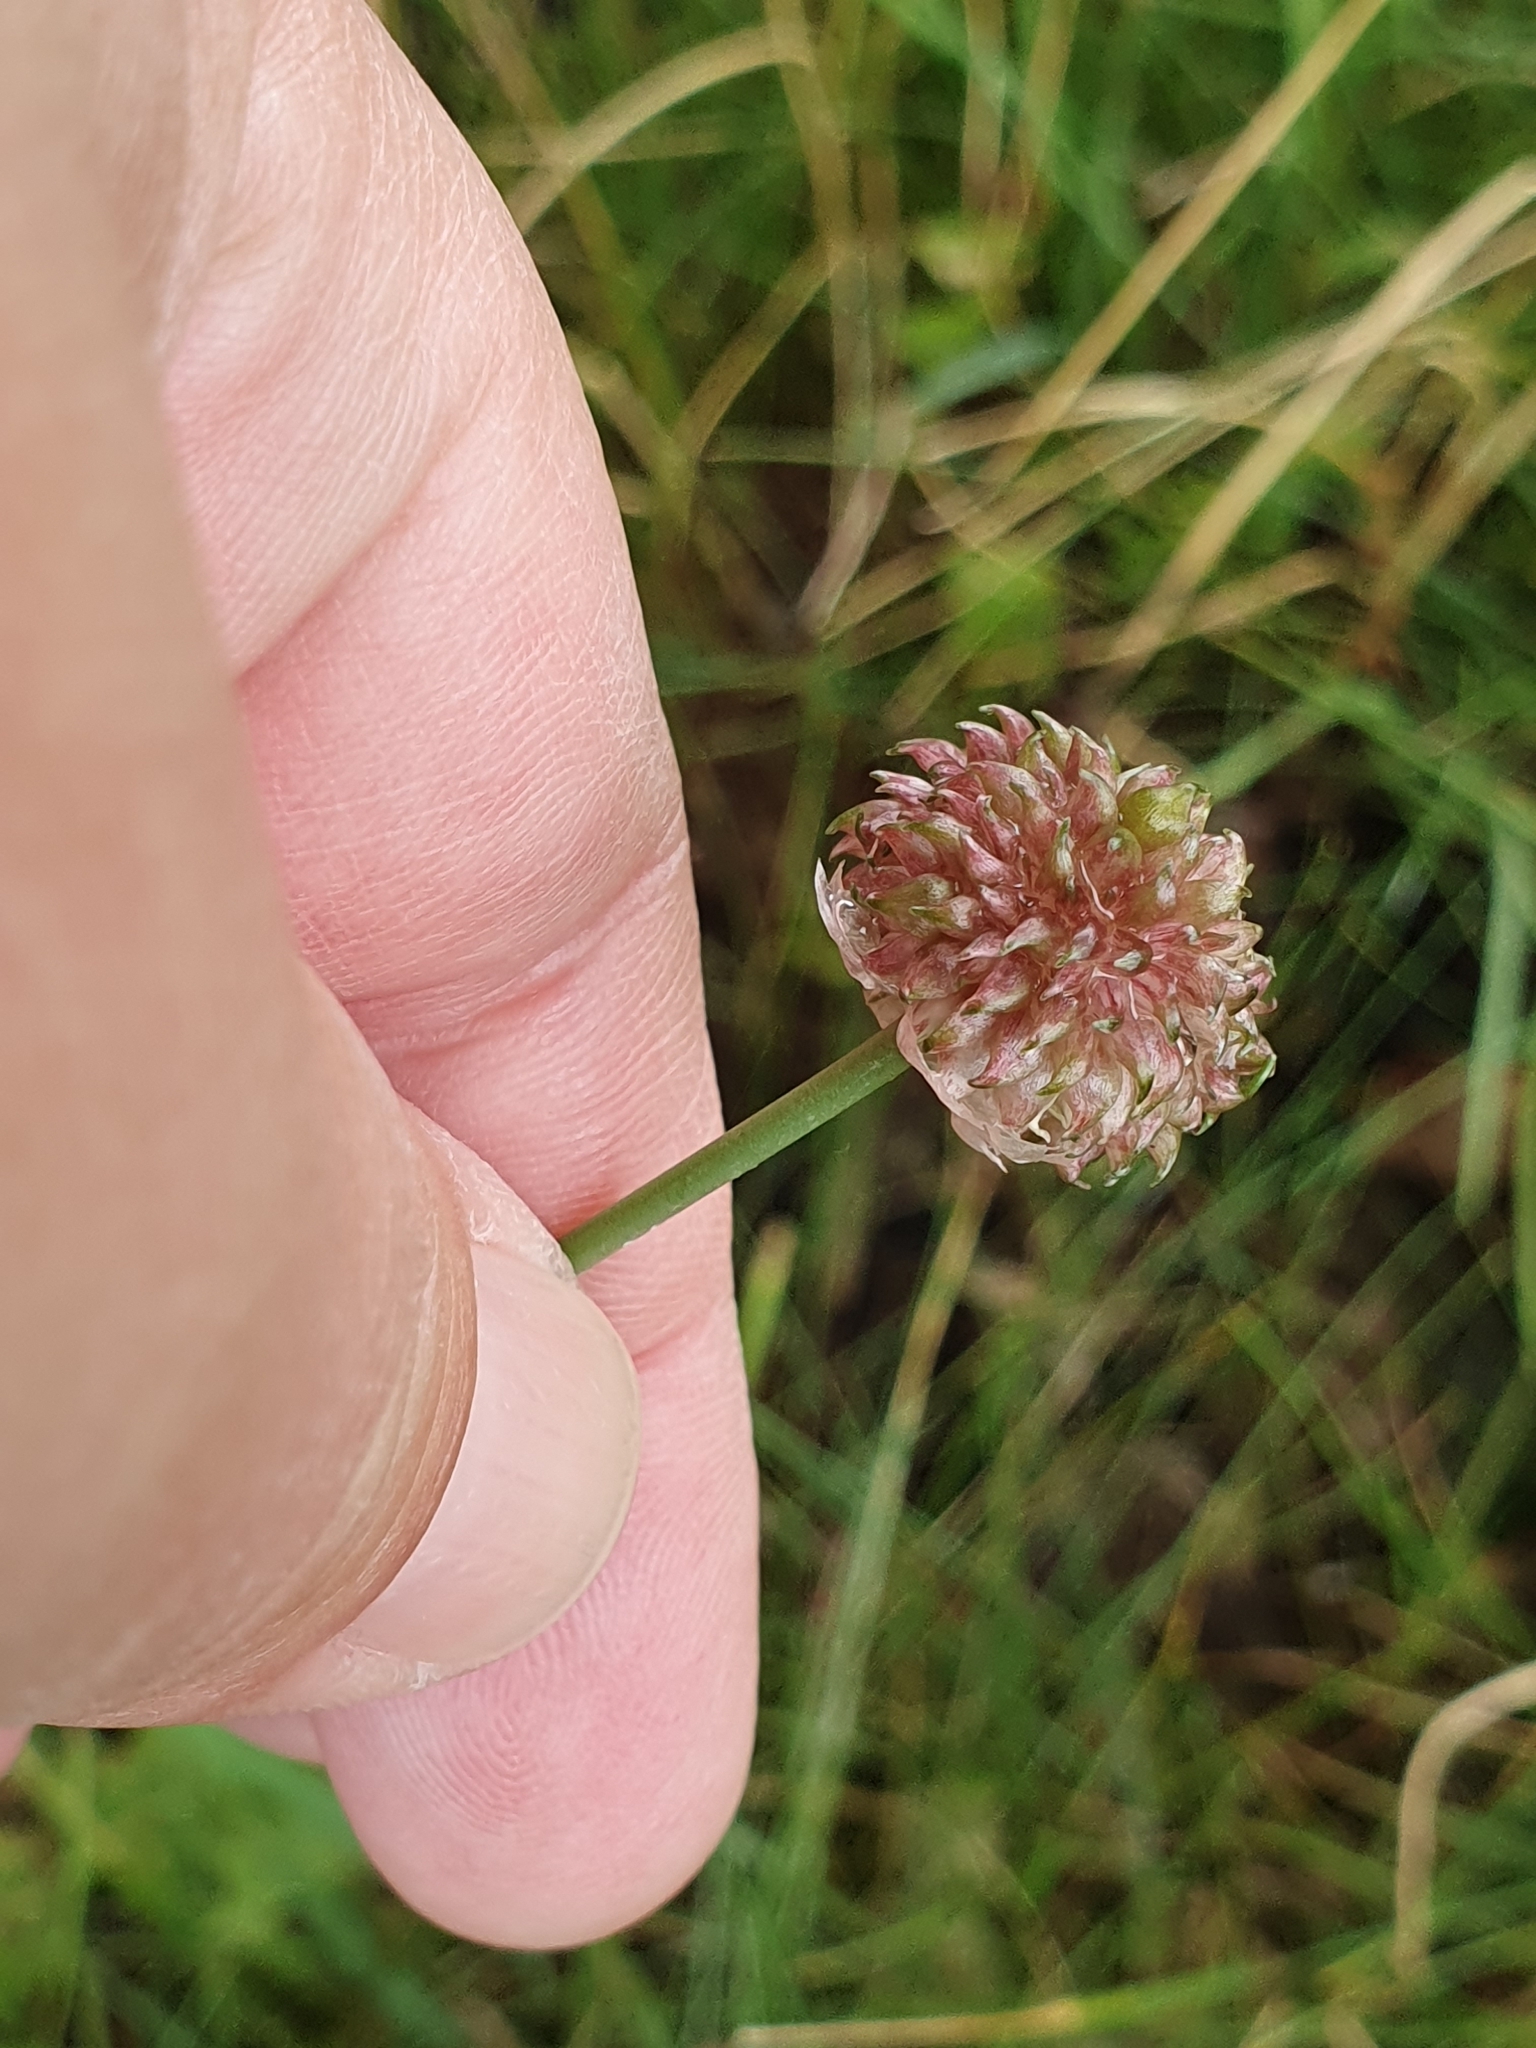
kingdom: Plantae
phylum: Tracheophyta
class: Liliopsida
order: Asparagales
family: Amaryllidaceae
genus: Allium
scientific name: Allium vineale
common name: Crow garlic
